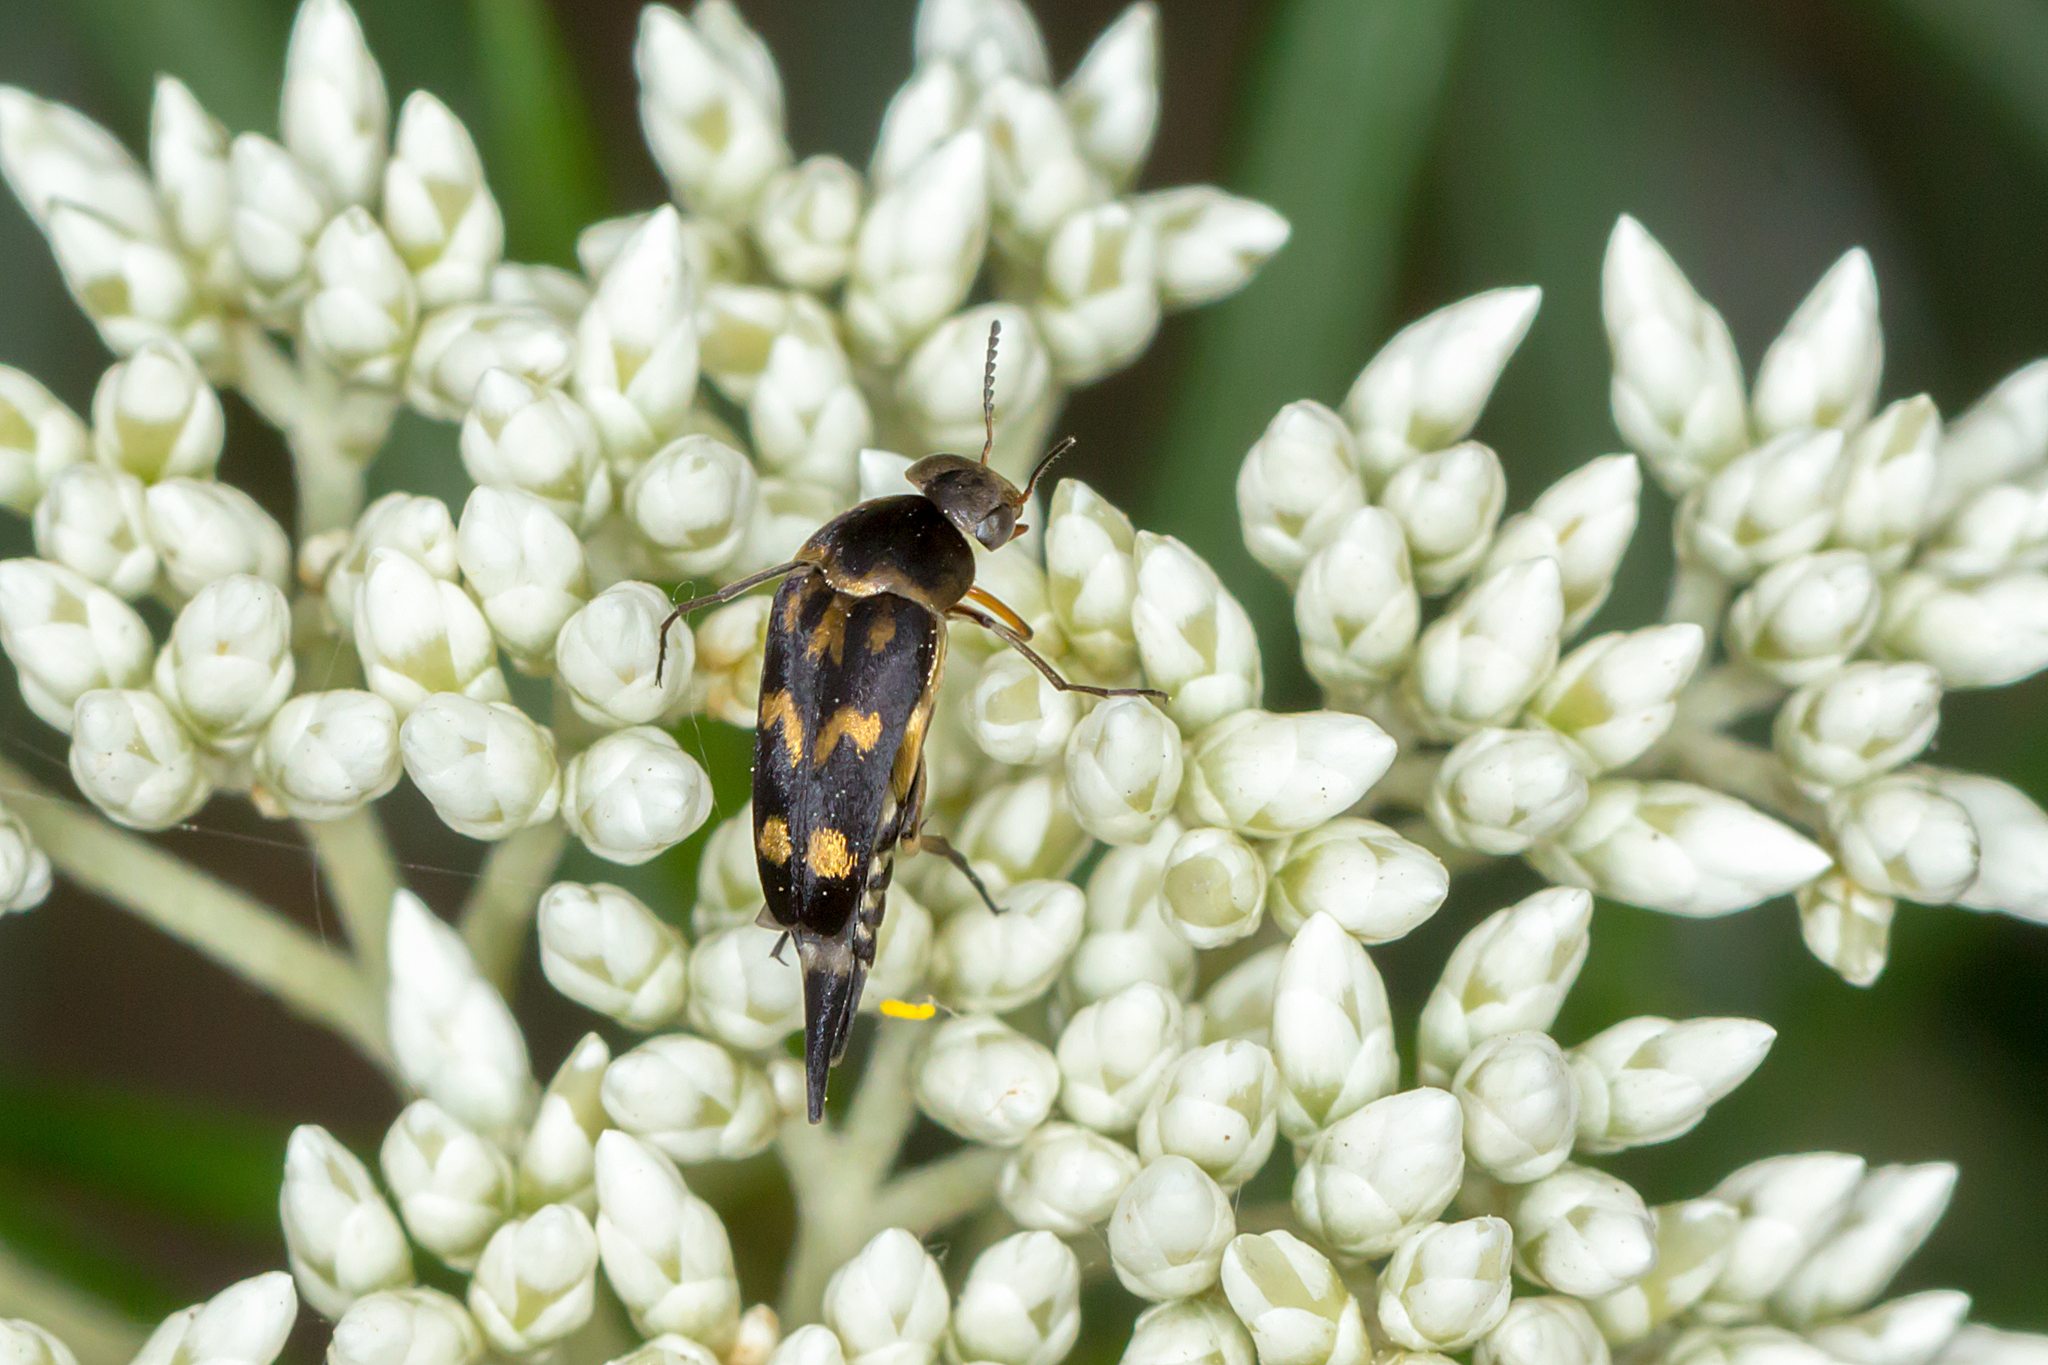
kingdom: Animalia
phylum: Arthropoda
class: Insecta
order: Coleoptera
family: Mordellidae
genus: Mordella
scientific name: Mordella
